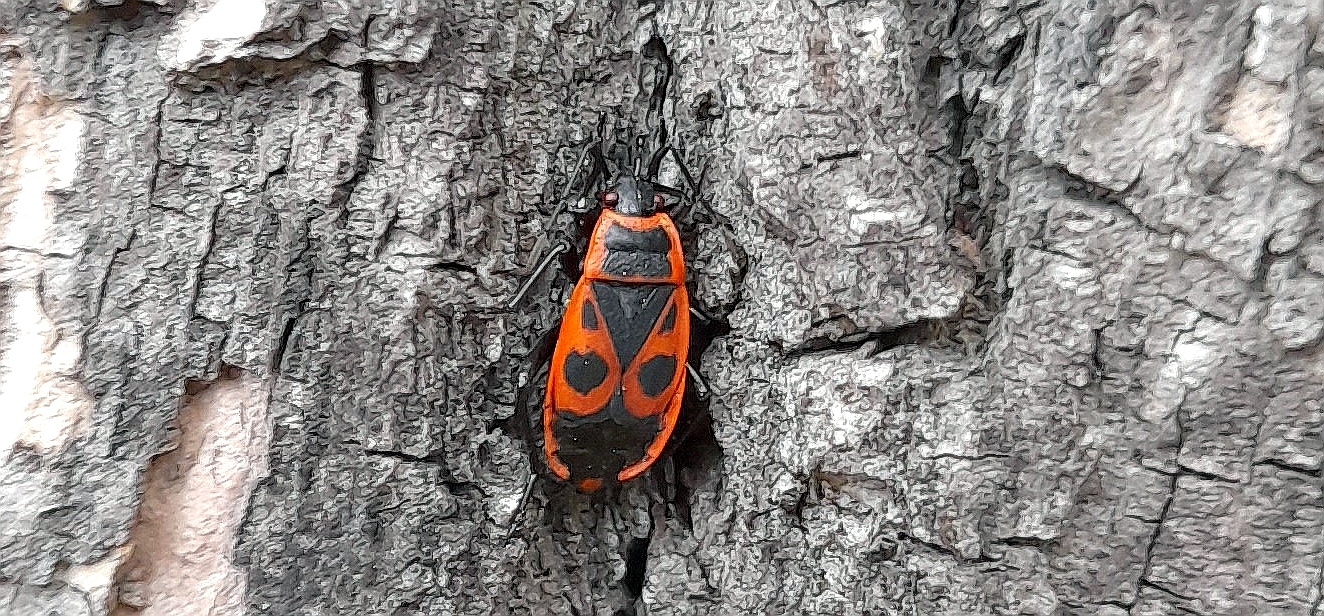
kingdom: Animalia
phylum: Arthropoda
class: Insecta
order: Hemiptera
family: Pyrrhocoridae
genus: Pyrrhocoris
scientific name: Pyrrhocoris apterus
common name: Firebug
